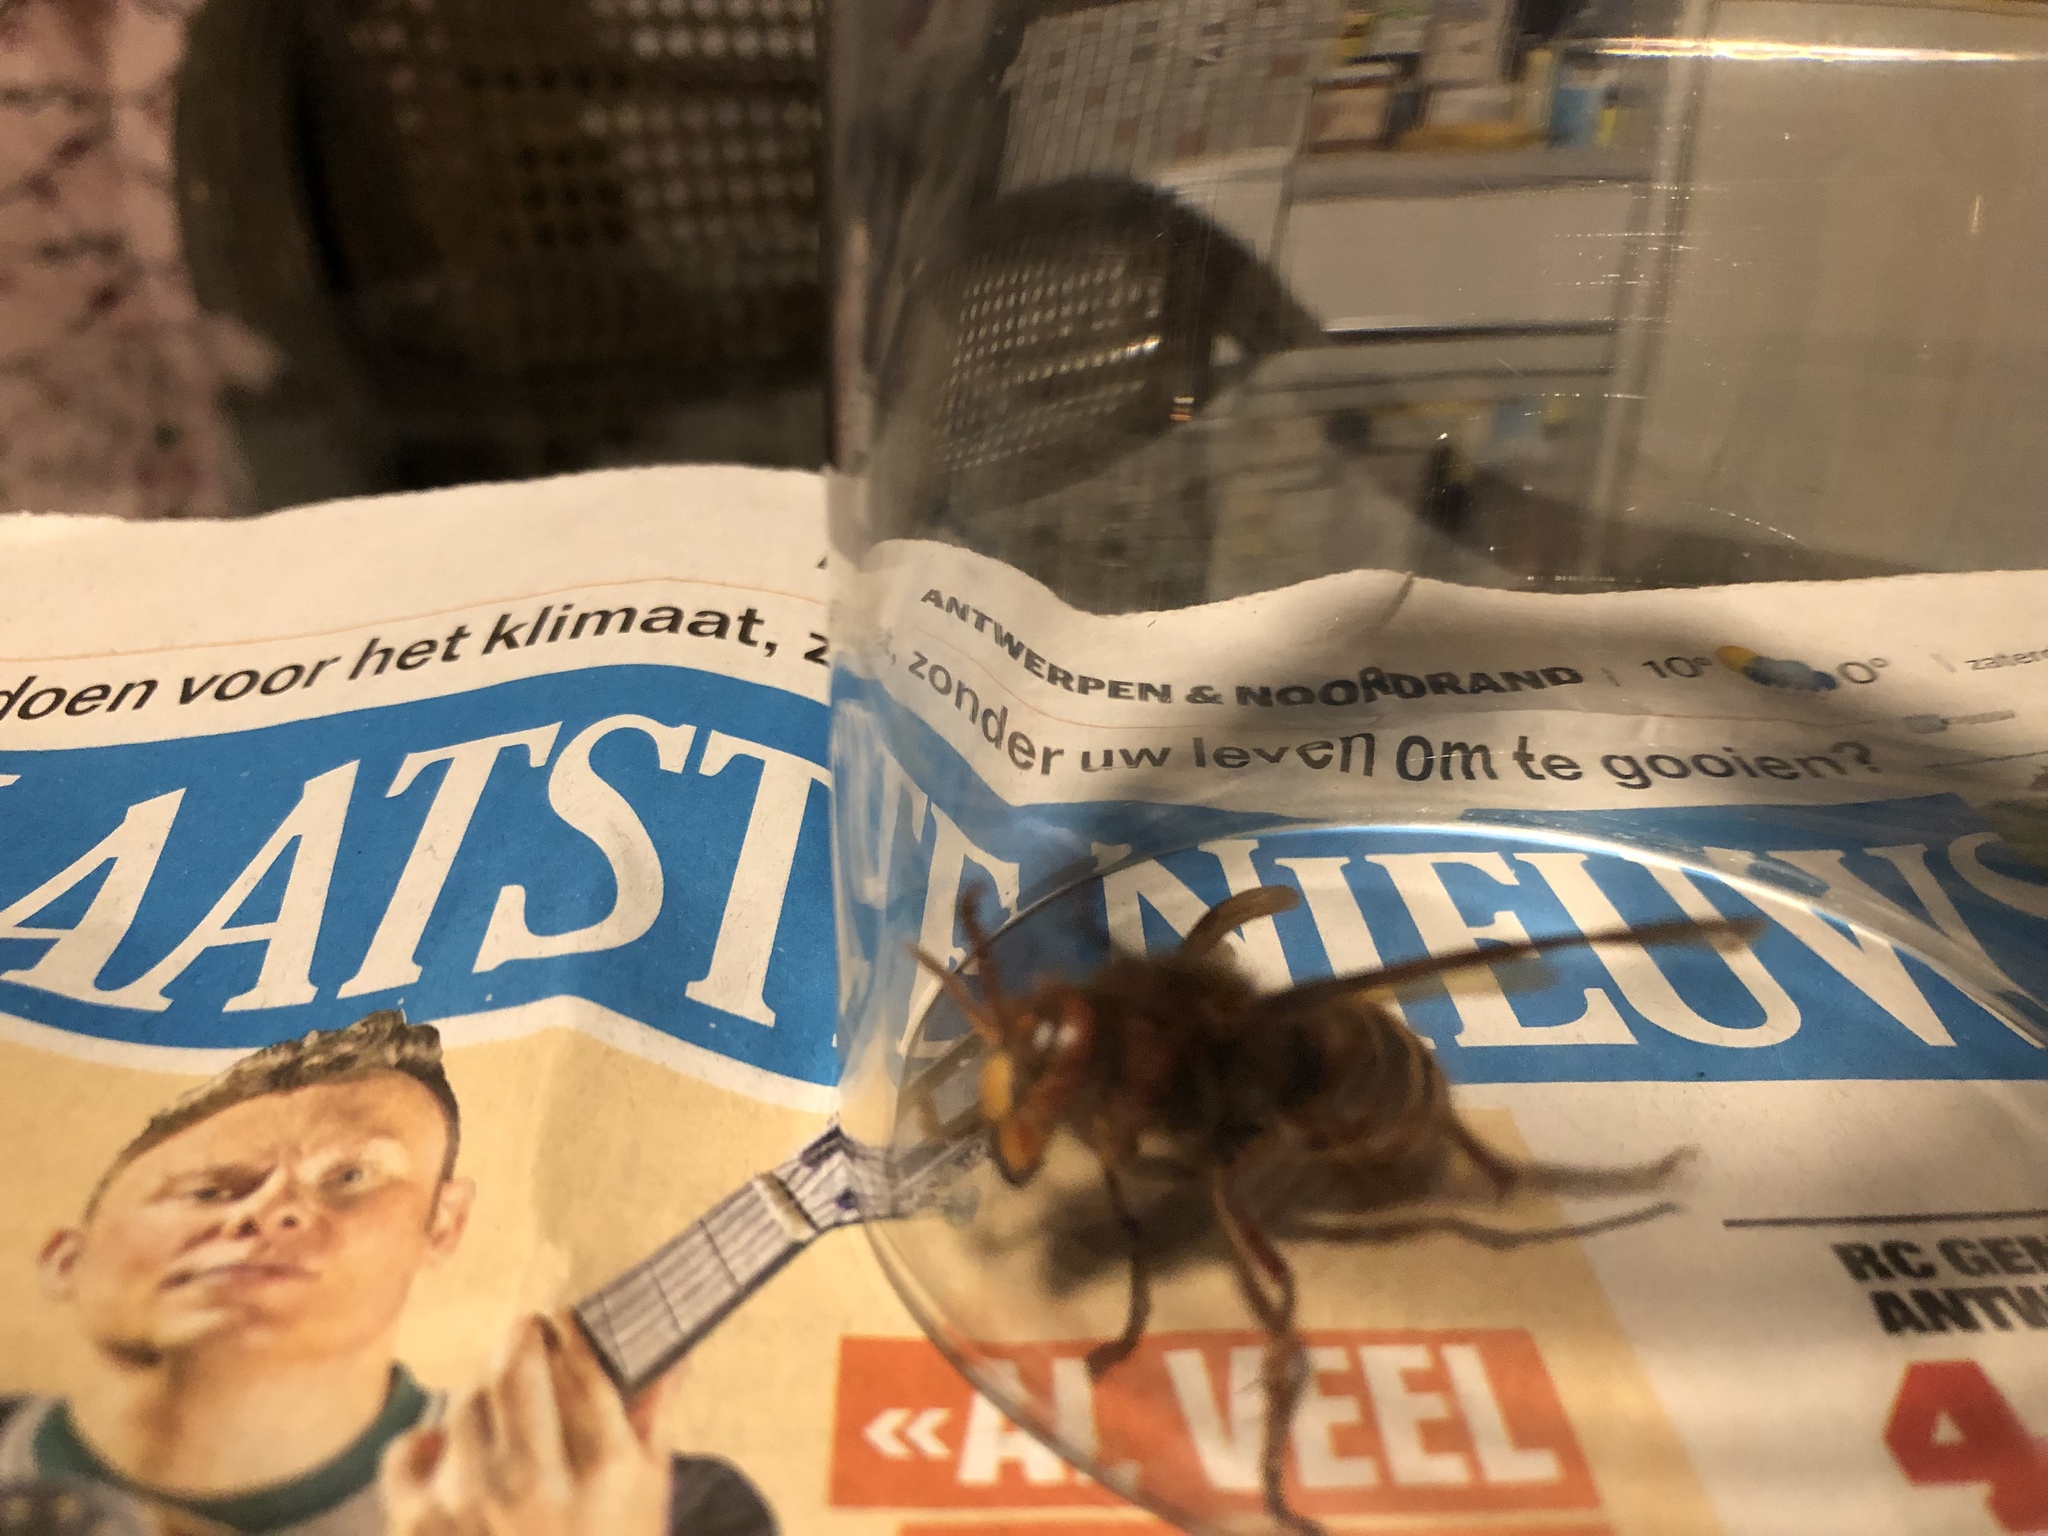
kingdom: Animalia
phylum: Arthropoda
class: Insecta
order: Hymenoptera
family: Vespidae
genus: Vespa
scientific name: Vespa crabro
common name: Hornet
